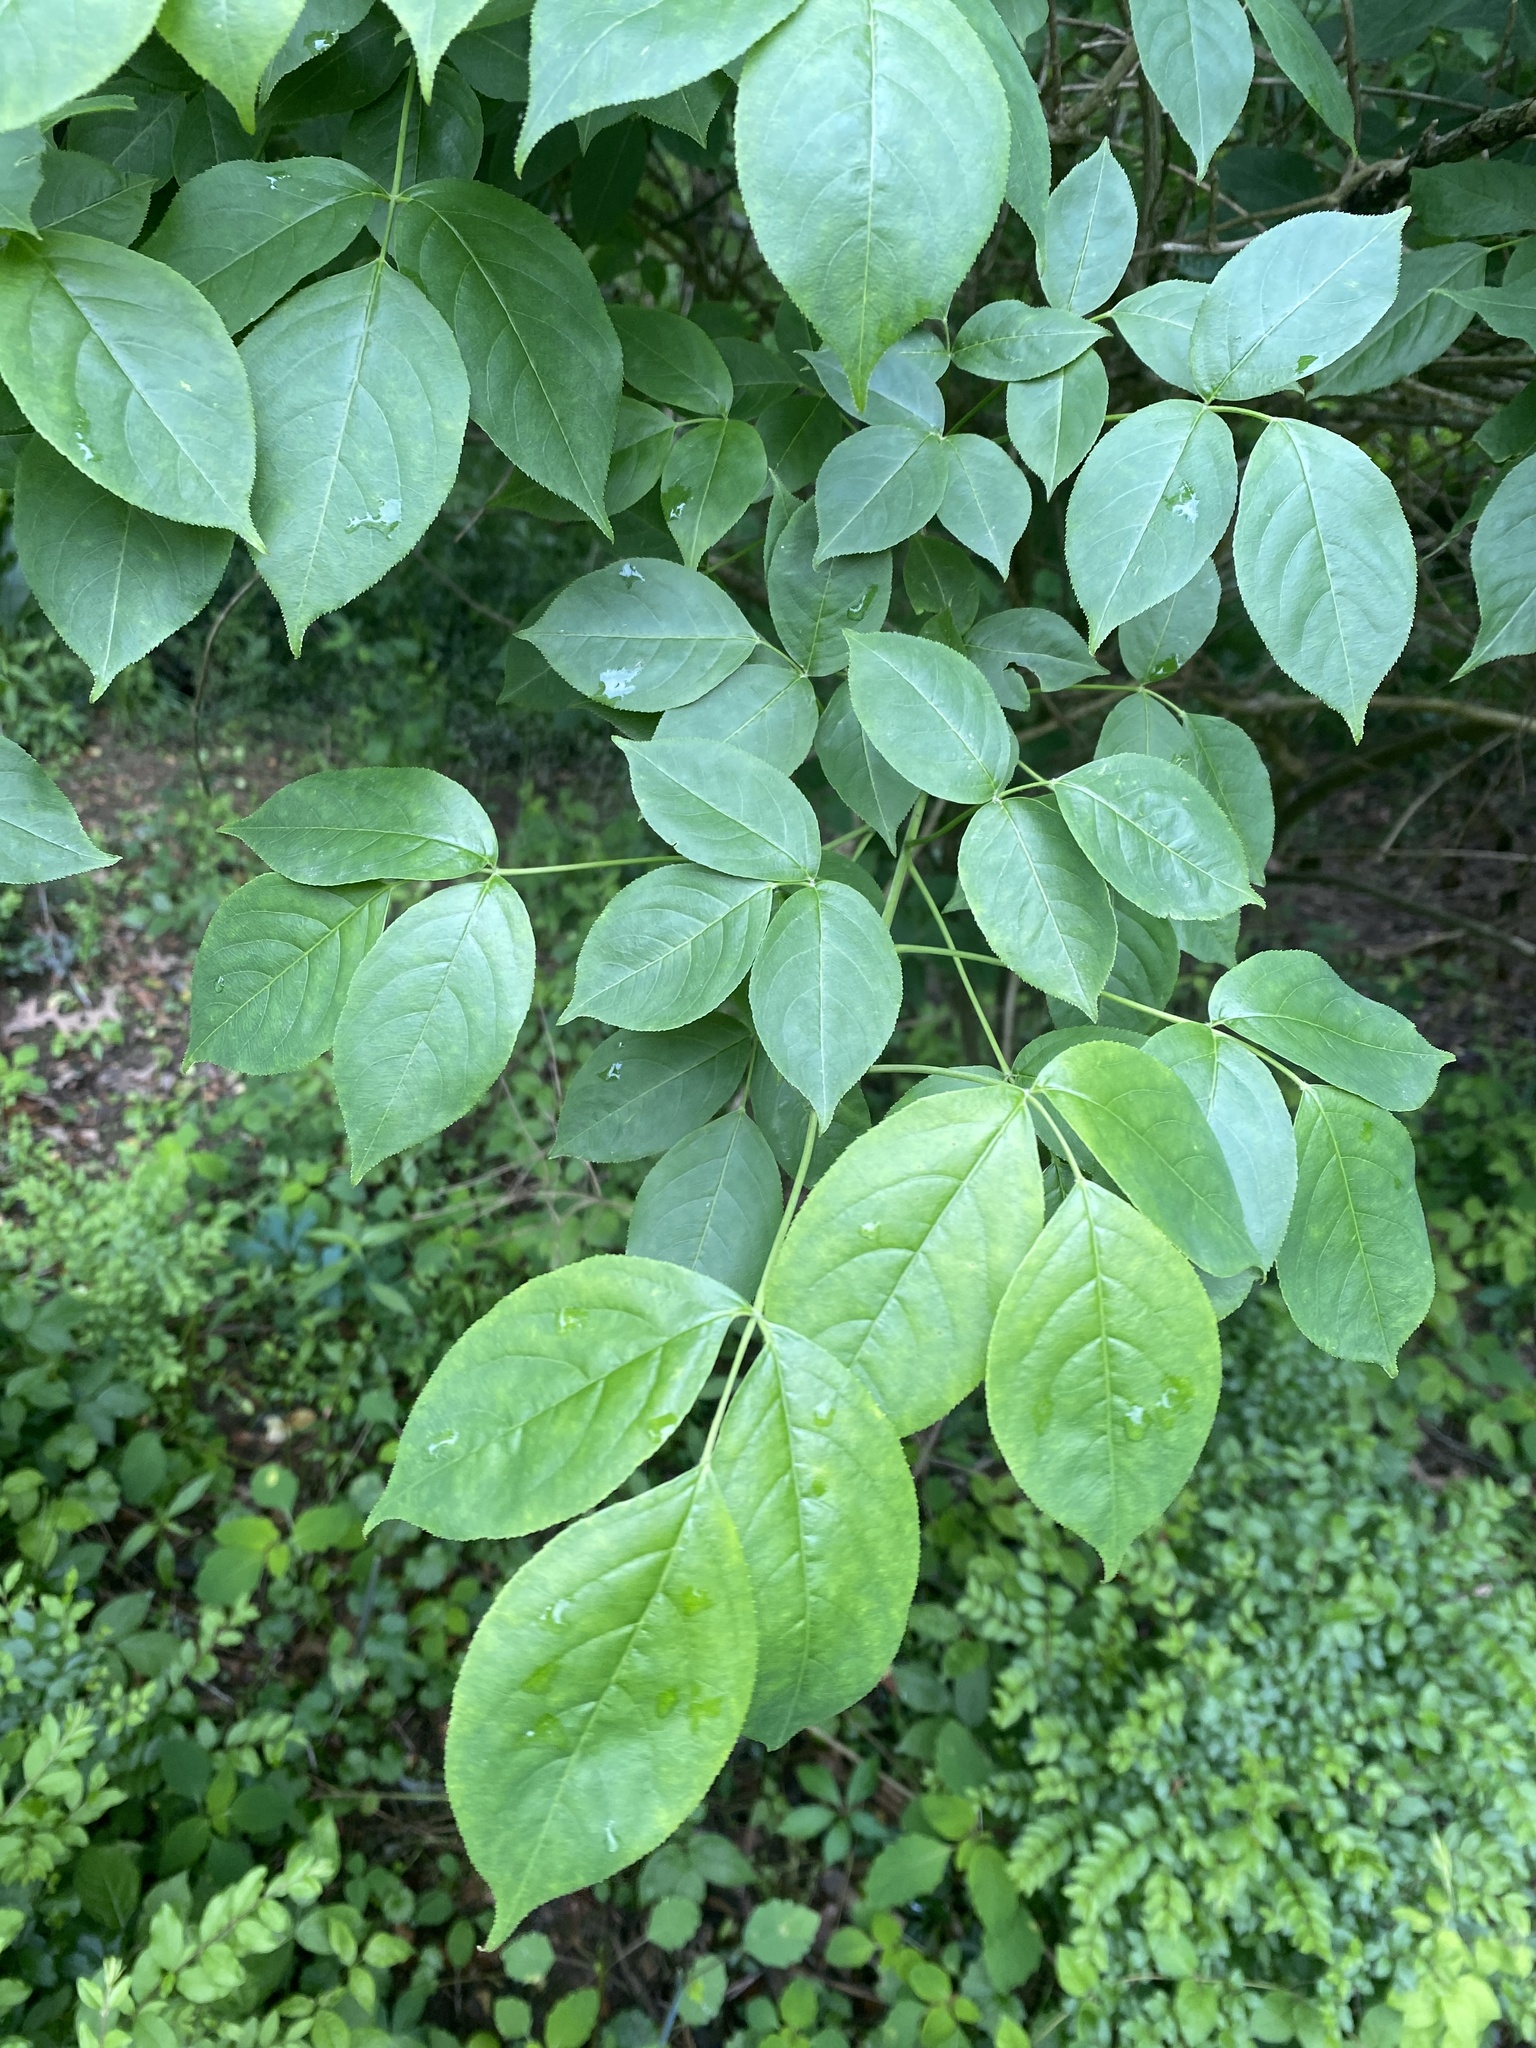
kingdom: Plantae
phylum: Tracheophyta
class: Magnoliopsida
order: Crossosomatales
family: Staphyleaceae
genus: Staphylea
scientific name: Staphylea trifolia
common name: American bladdernut
